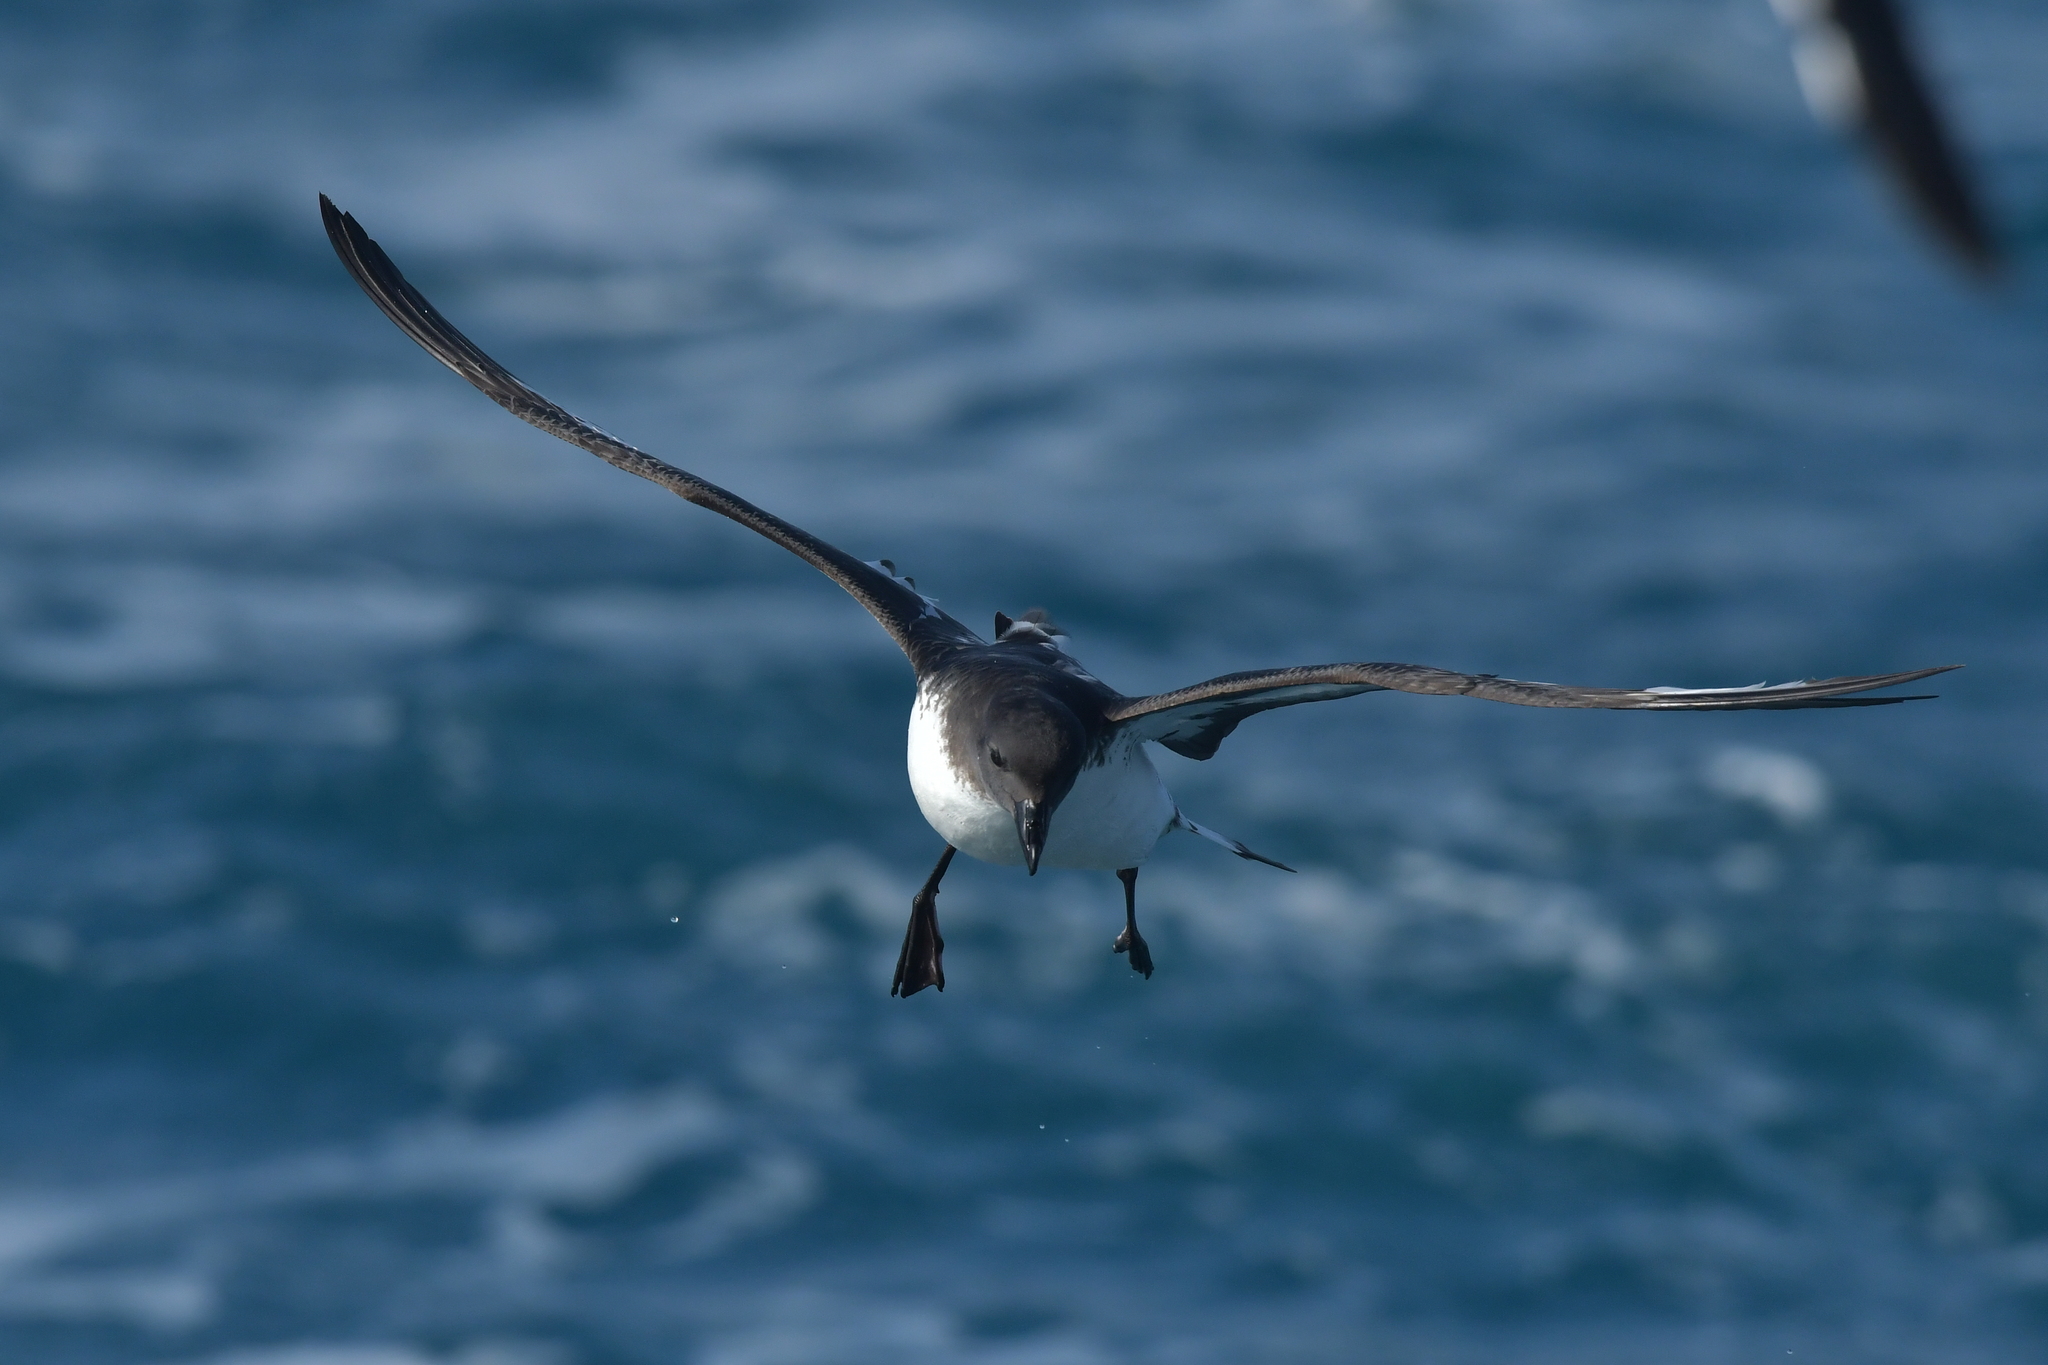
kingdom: Animalia
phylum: Chordata
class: Aves
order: Procellariiformes
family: Procellariidae
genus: Daption
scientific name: Daption capense
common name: Cape petrel
